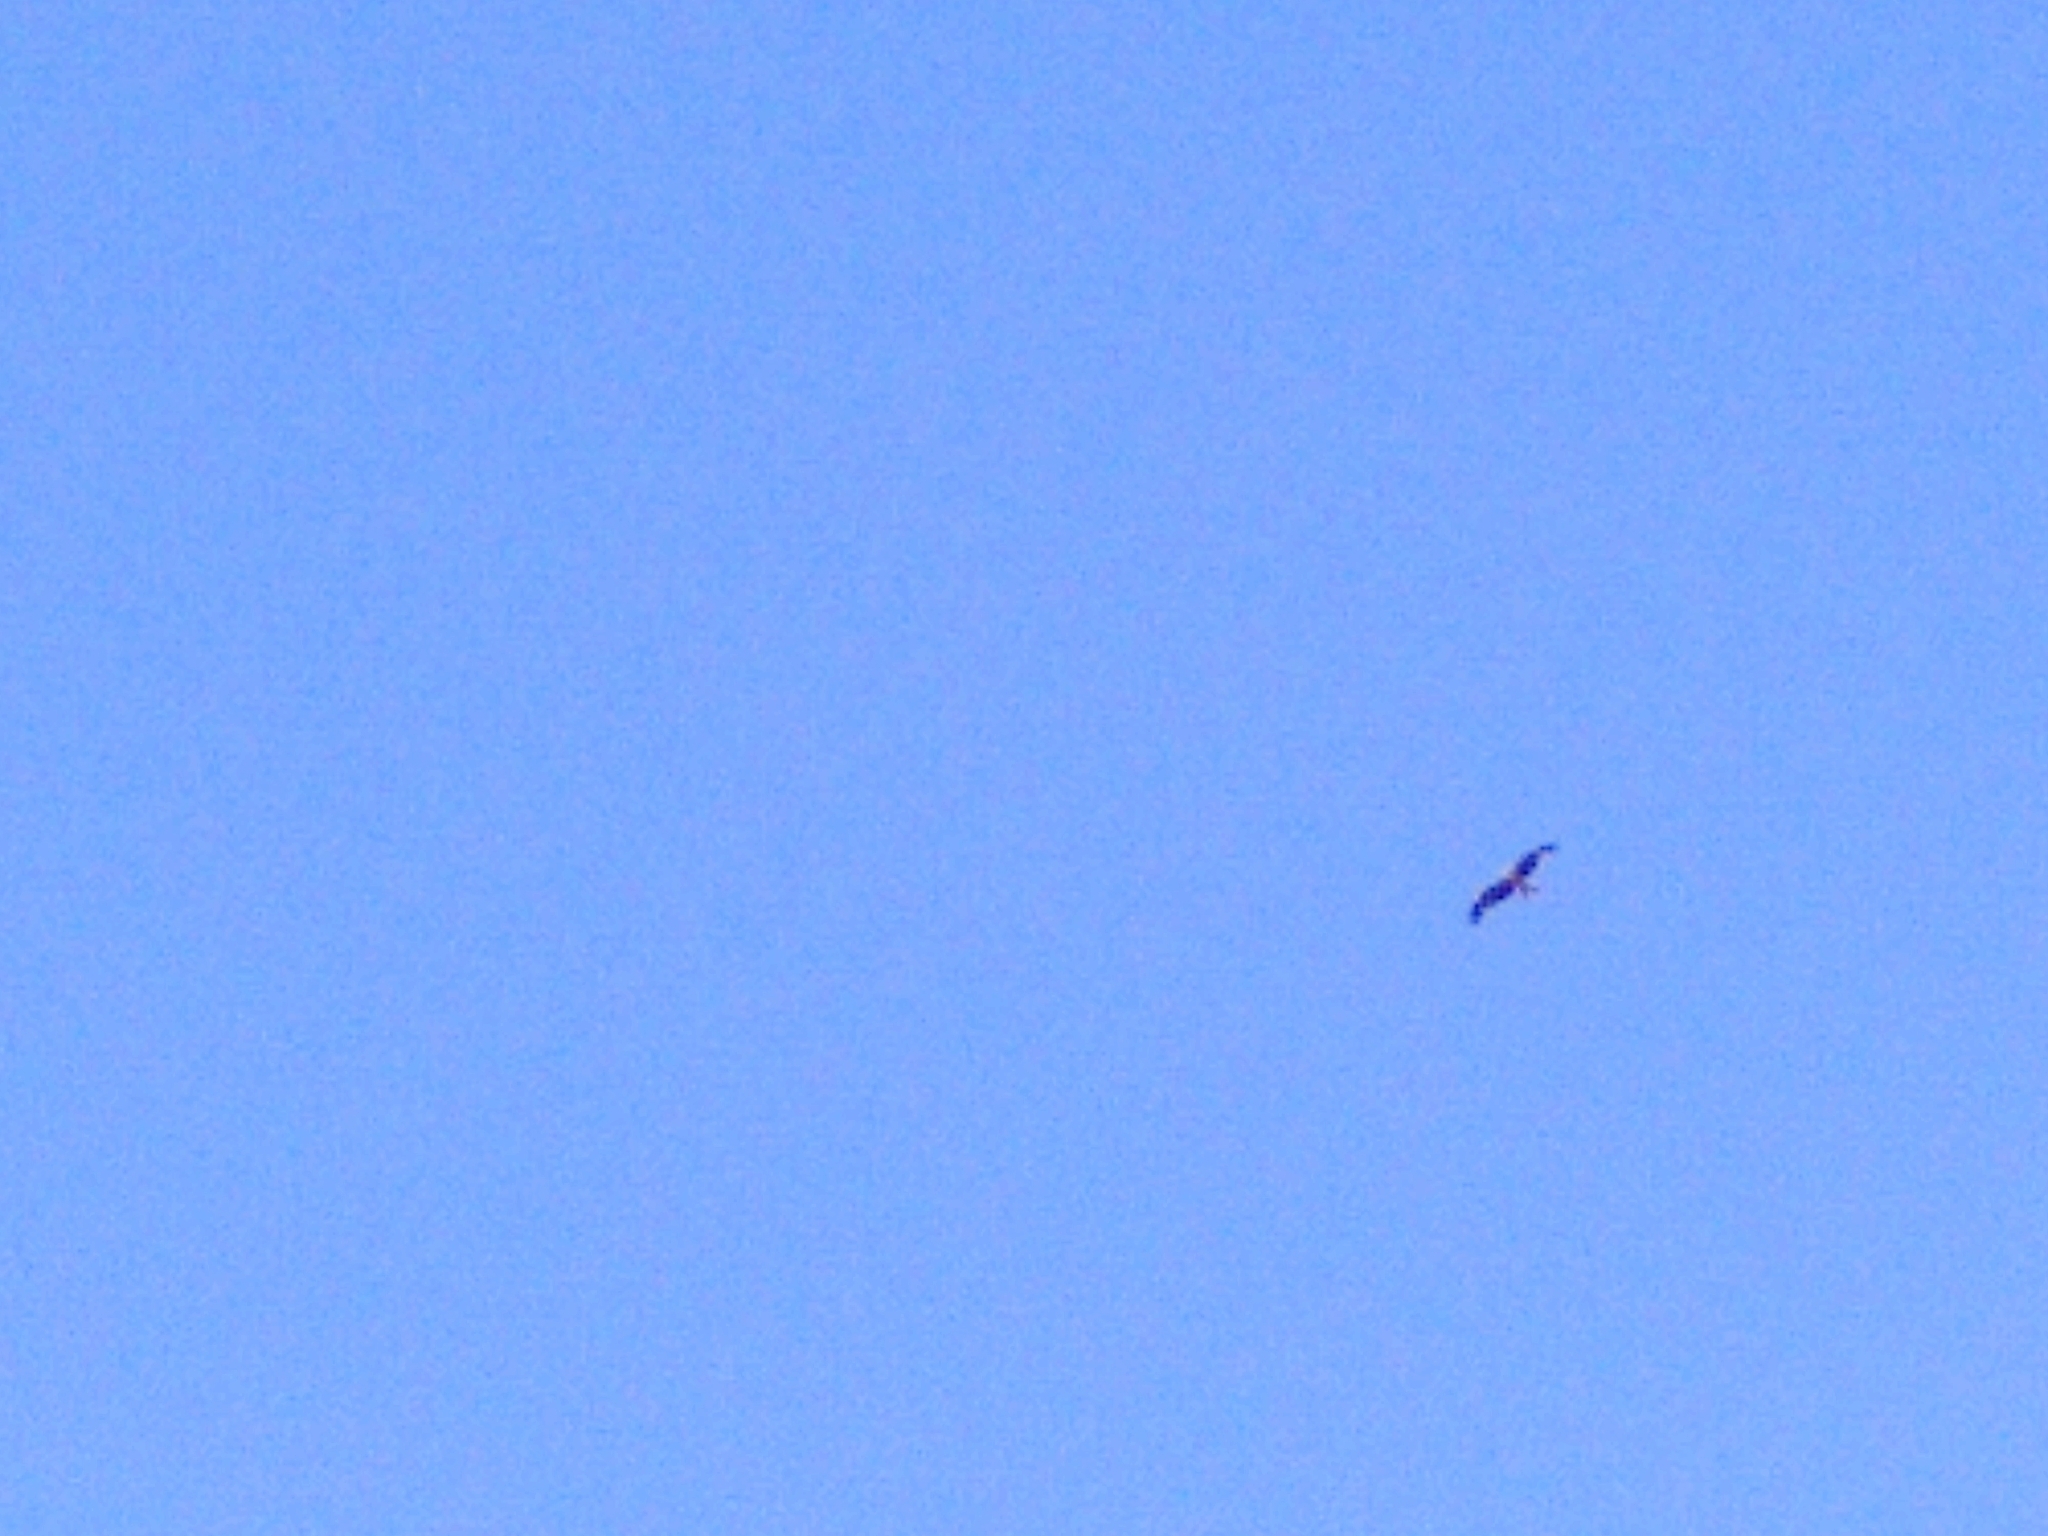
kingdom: Animalia
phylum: Chordata
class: Aves
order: Accipitriformes
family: Accipitridae
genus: Milvus
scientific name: Milvus milvus
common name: Red kite
